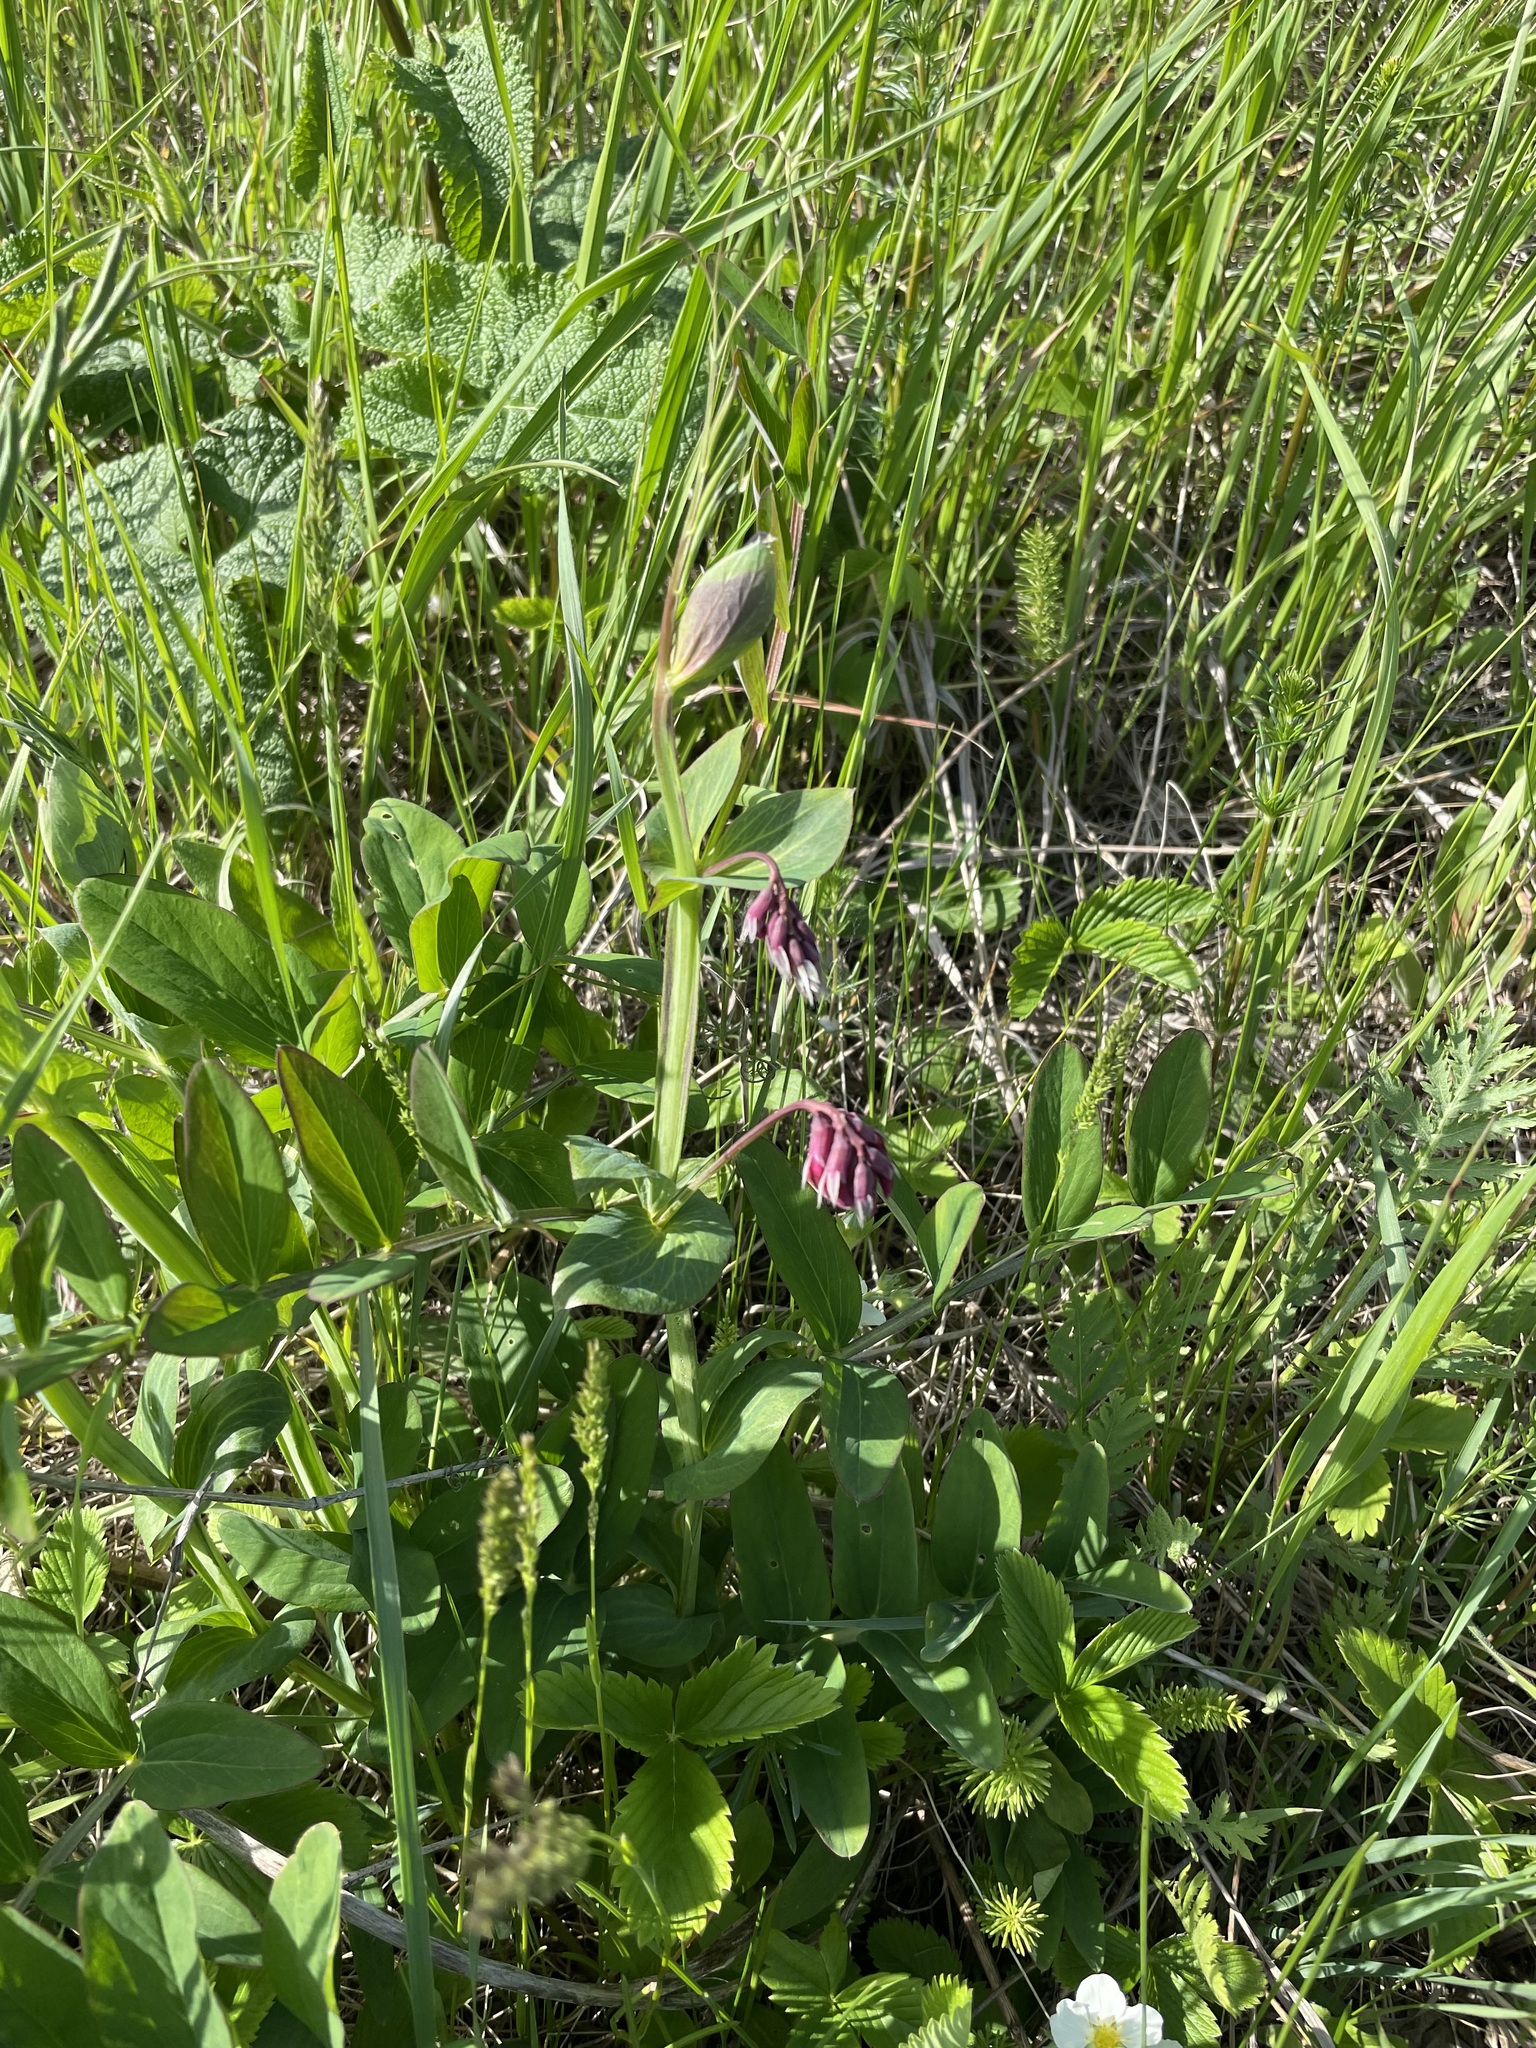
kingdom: Plantae
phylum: Tracheophyta
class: Magnoliopsida
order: Fabales
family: Fabaceae
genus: Lathyrus
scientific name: Lathyrus pisiformis
